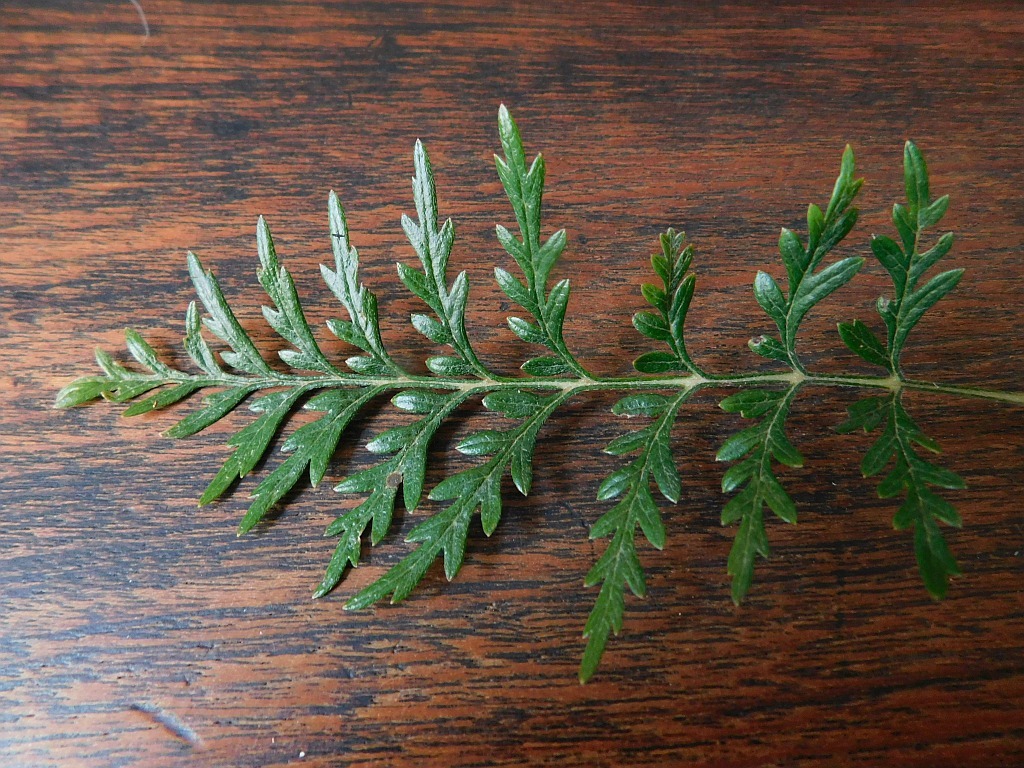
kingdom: Plantae
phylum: Tracheophyta
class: Magnoliopsida
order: Proteales
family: Proteaceae
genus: Grevillea
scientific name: Grevillea robusta
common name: Silkoak
